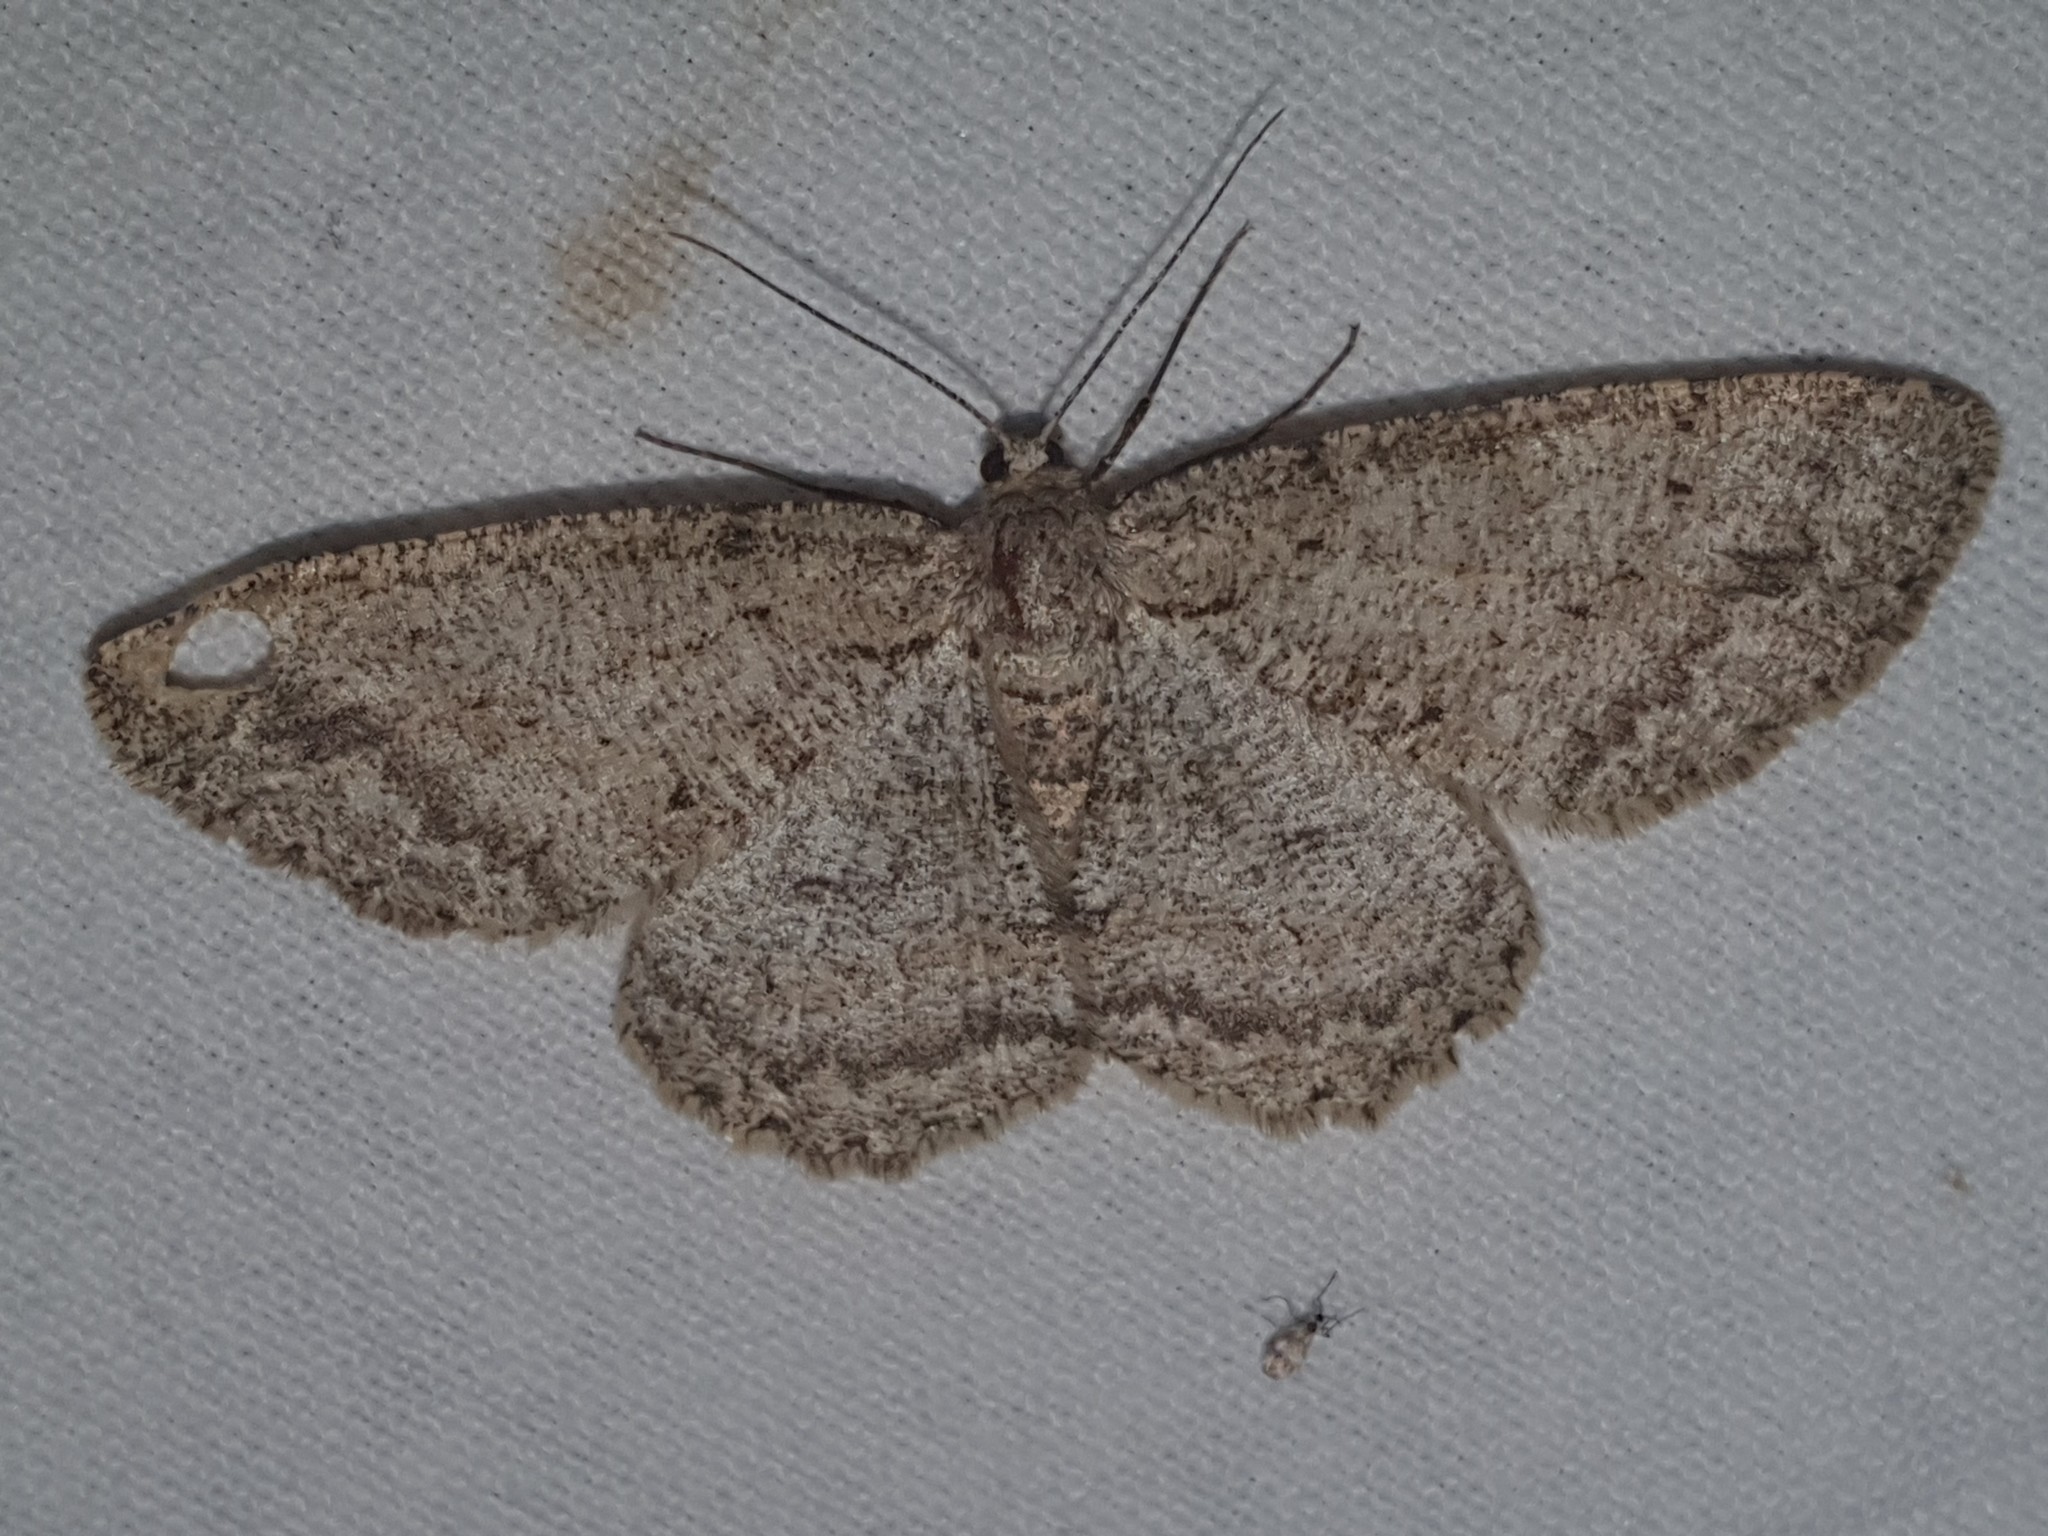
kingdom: Animalia
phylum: Arthropoda
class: Insecta
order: Lepidoptera
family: Geometridae
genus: Hypomecis
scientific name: Hypomecis punctinalis
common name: Pale oak beauty
